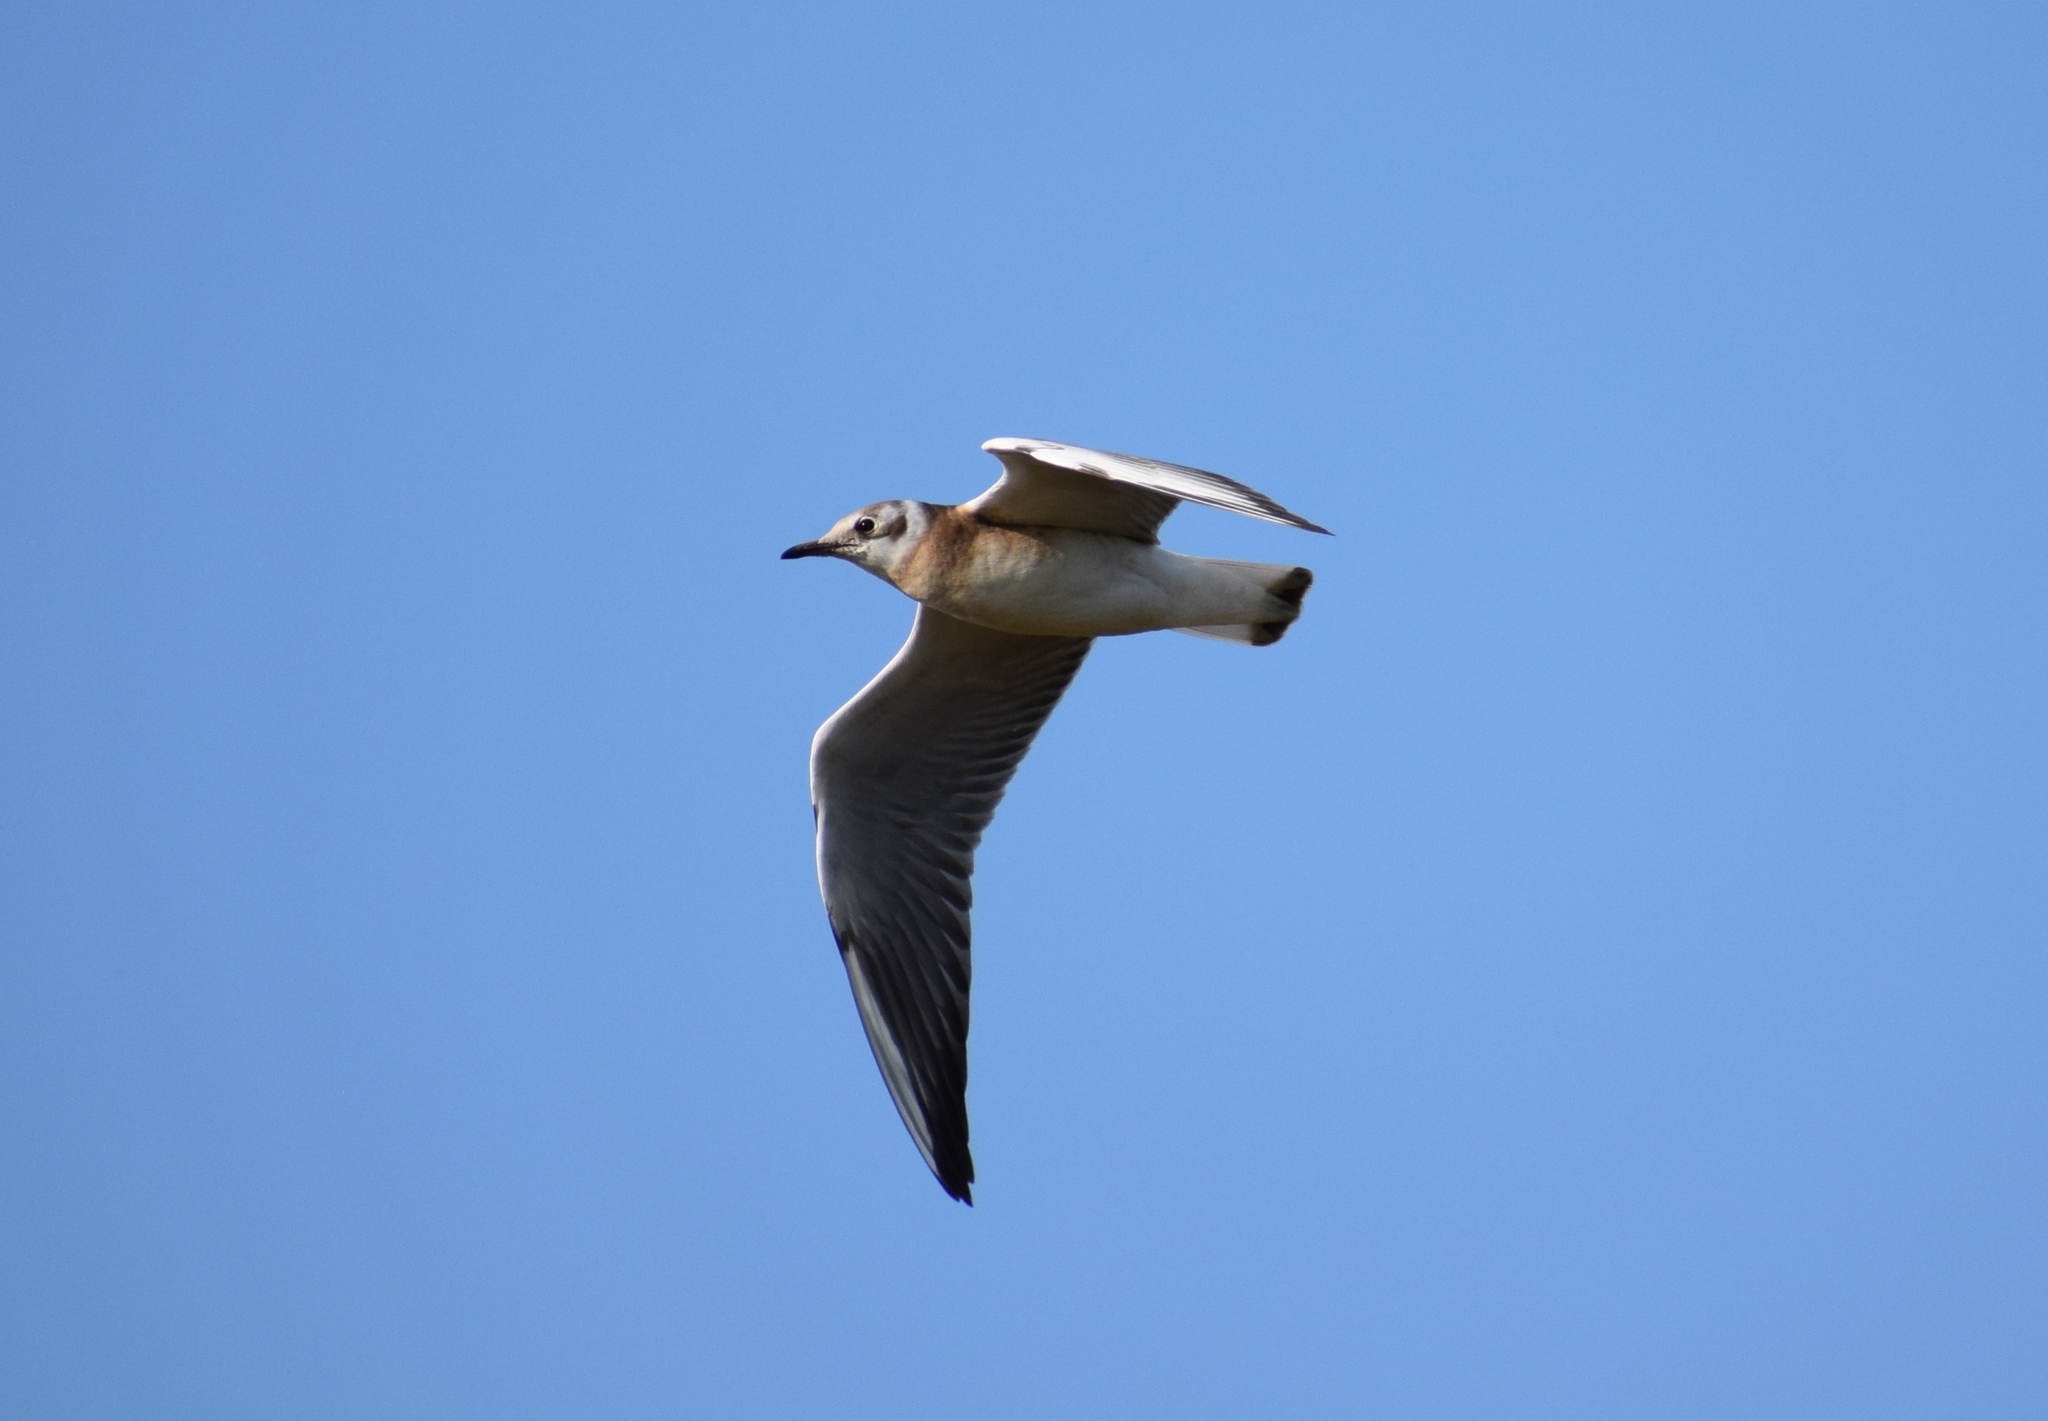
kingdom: Animalia
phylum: Chordata
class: Aves
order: Charadriiformes
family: Laridae
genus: Chroicocephalus
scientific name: Chroicocephalus ridibundus
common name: Black-headed gull
